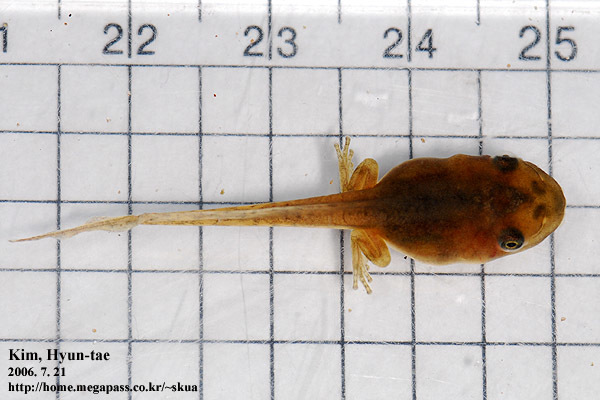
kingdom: Animalia
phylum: Chordata
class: Amphibia
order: Anura
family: Hylidae
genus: Dryophytes
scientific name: Dryophytes japonicus
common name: Japanese treefrog
